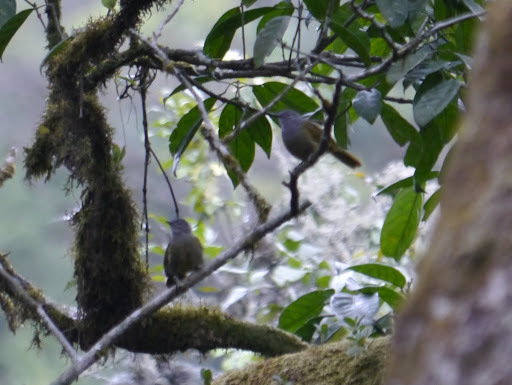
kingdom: Animalia
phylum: Chordata
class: Aves
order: Passeriformes
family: Pycnonotidae
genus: Arizelocichla
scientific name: Arizelocichla tephrolaema
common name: Western greenbul
